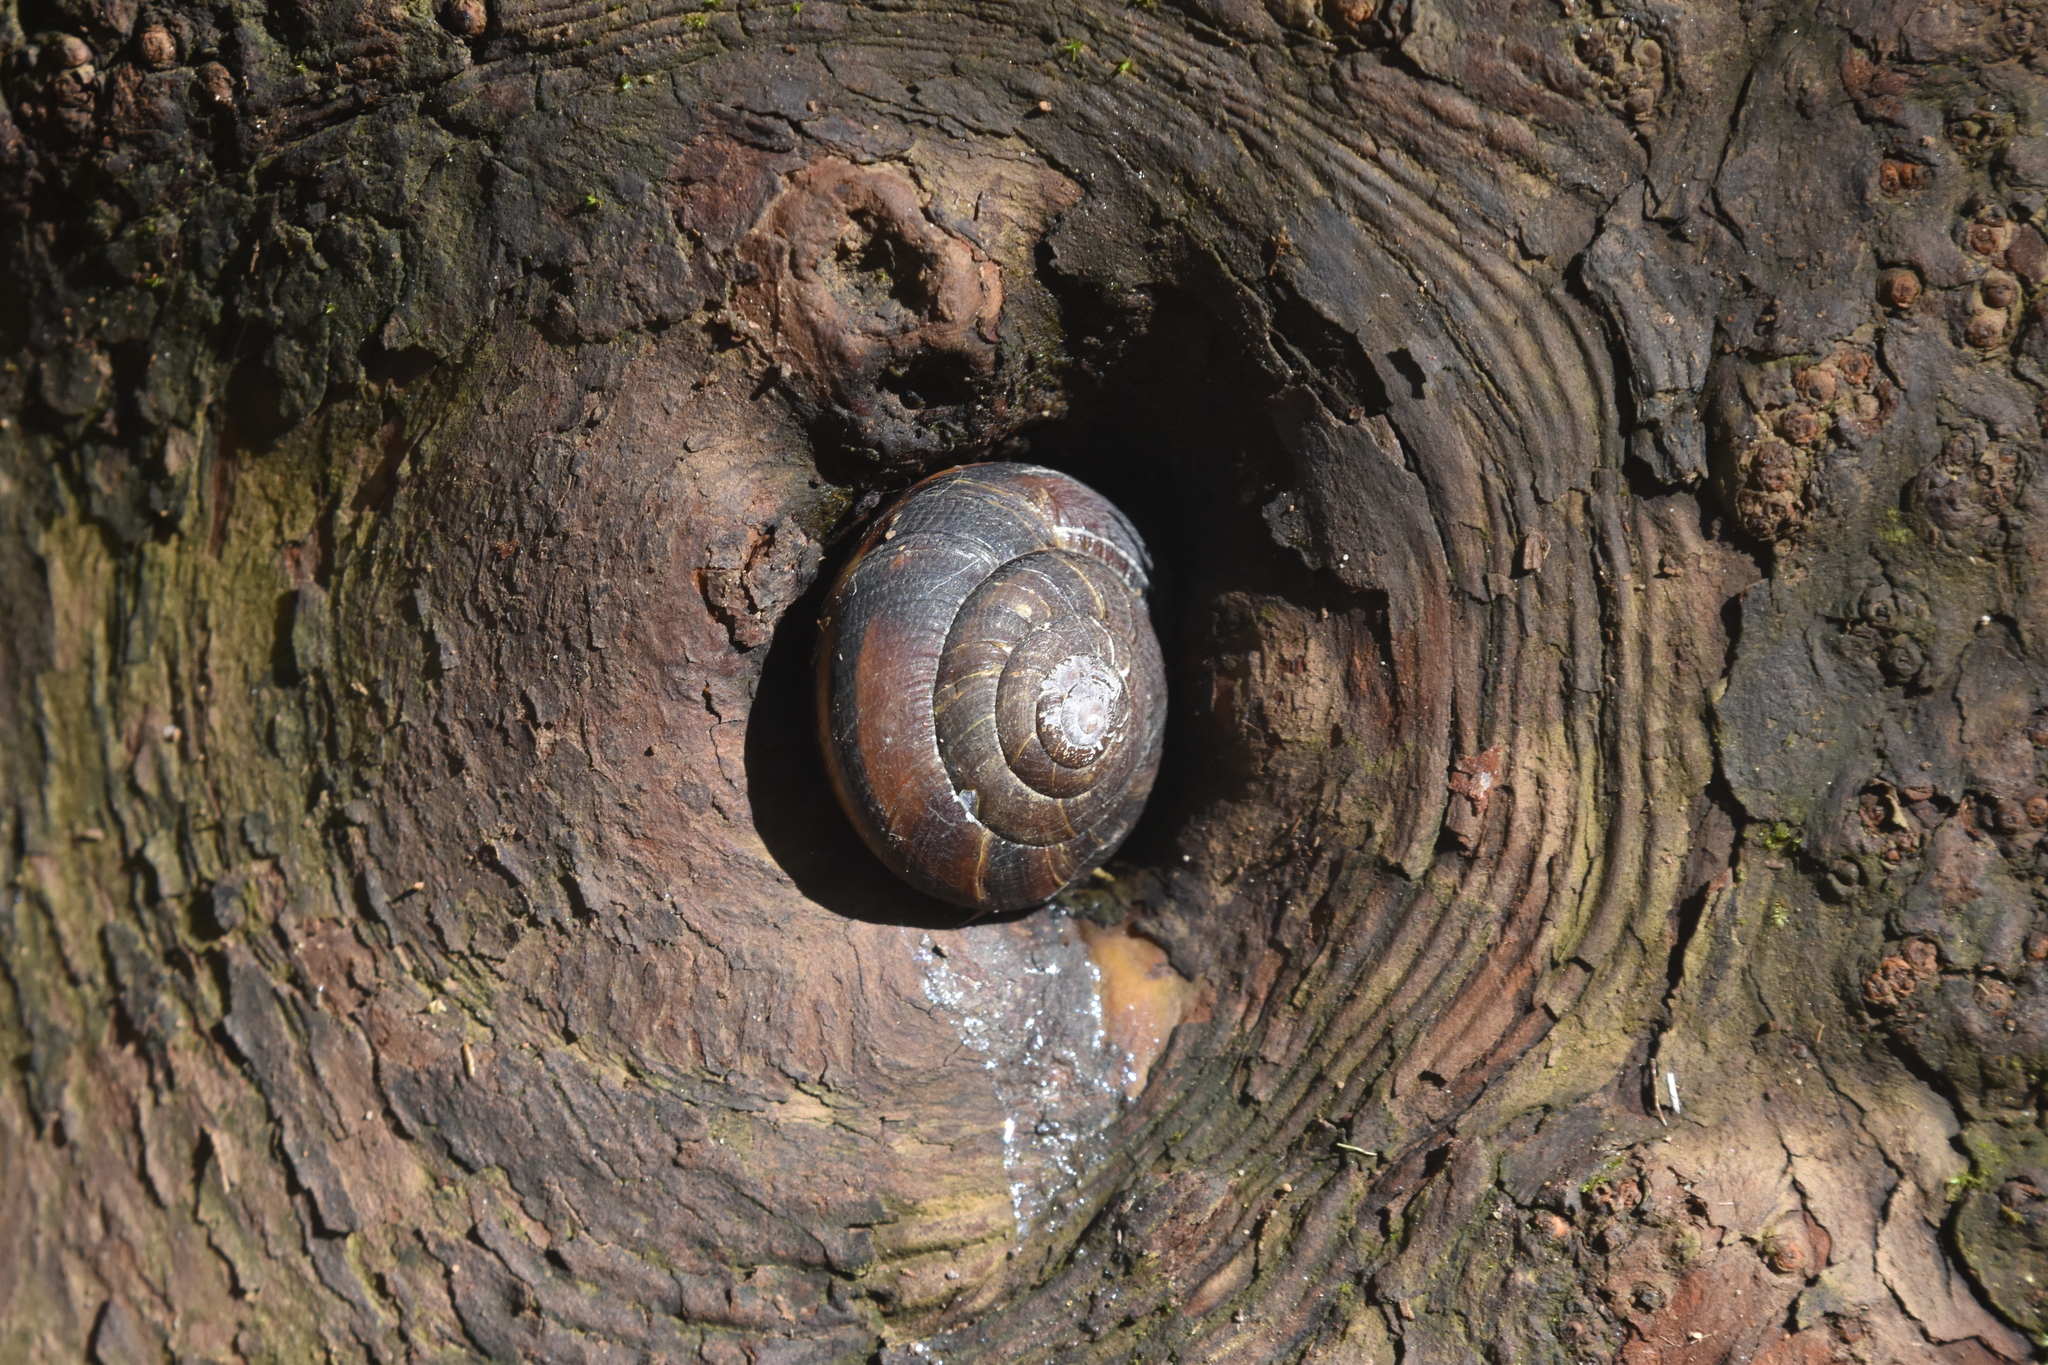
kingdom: Animalia
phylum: Mollusca
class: Gastropoda
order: Stylommatophora
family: Xanthonychidae
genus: Monadenia
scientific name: Monadenia fidelis
